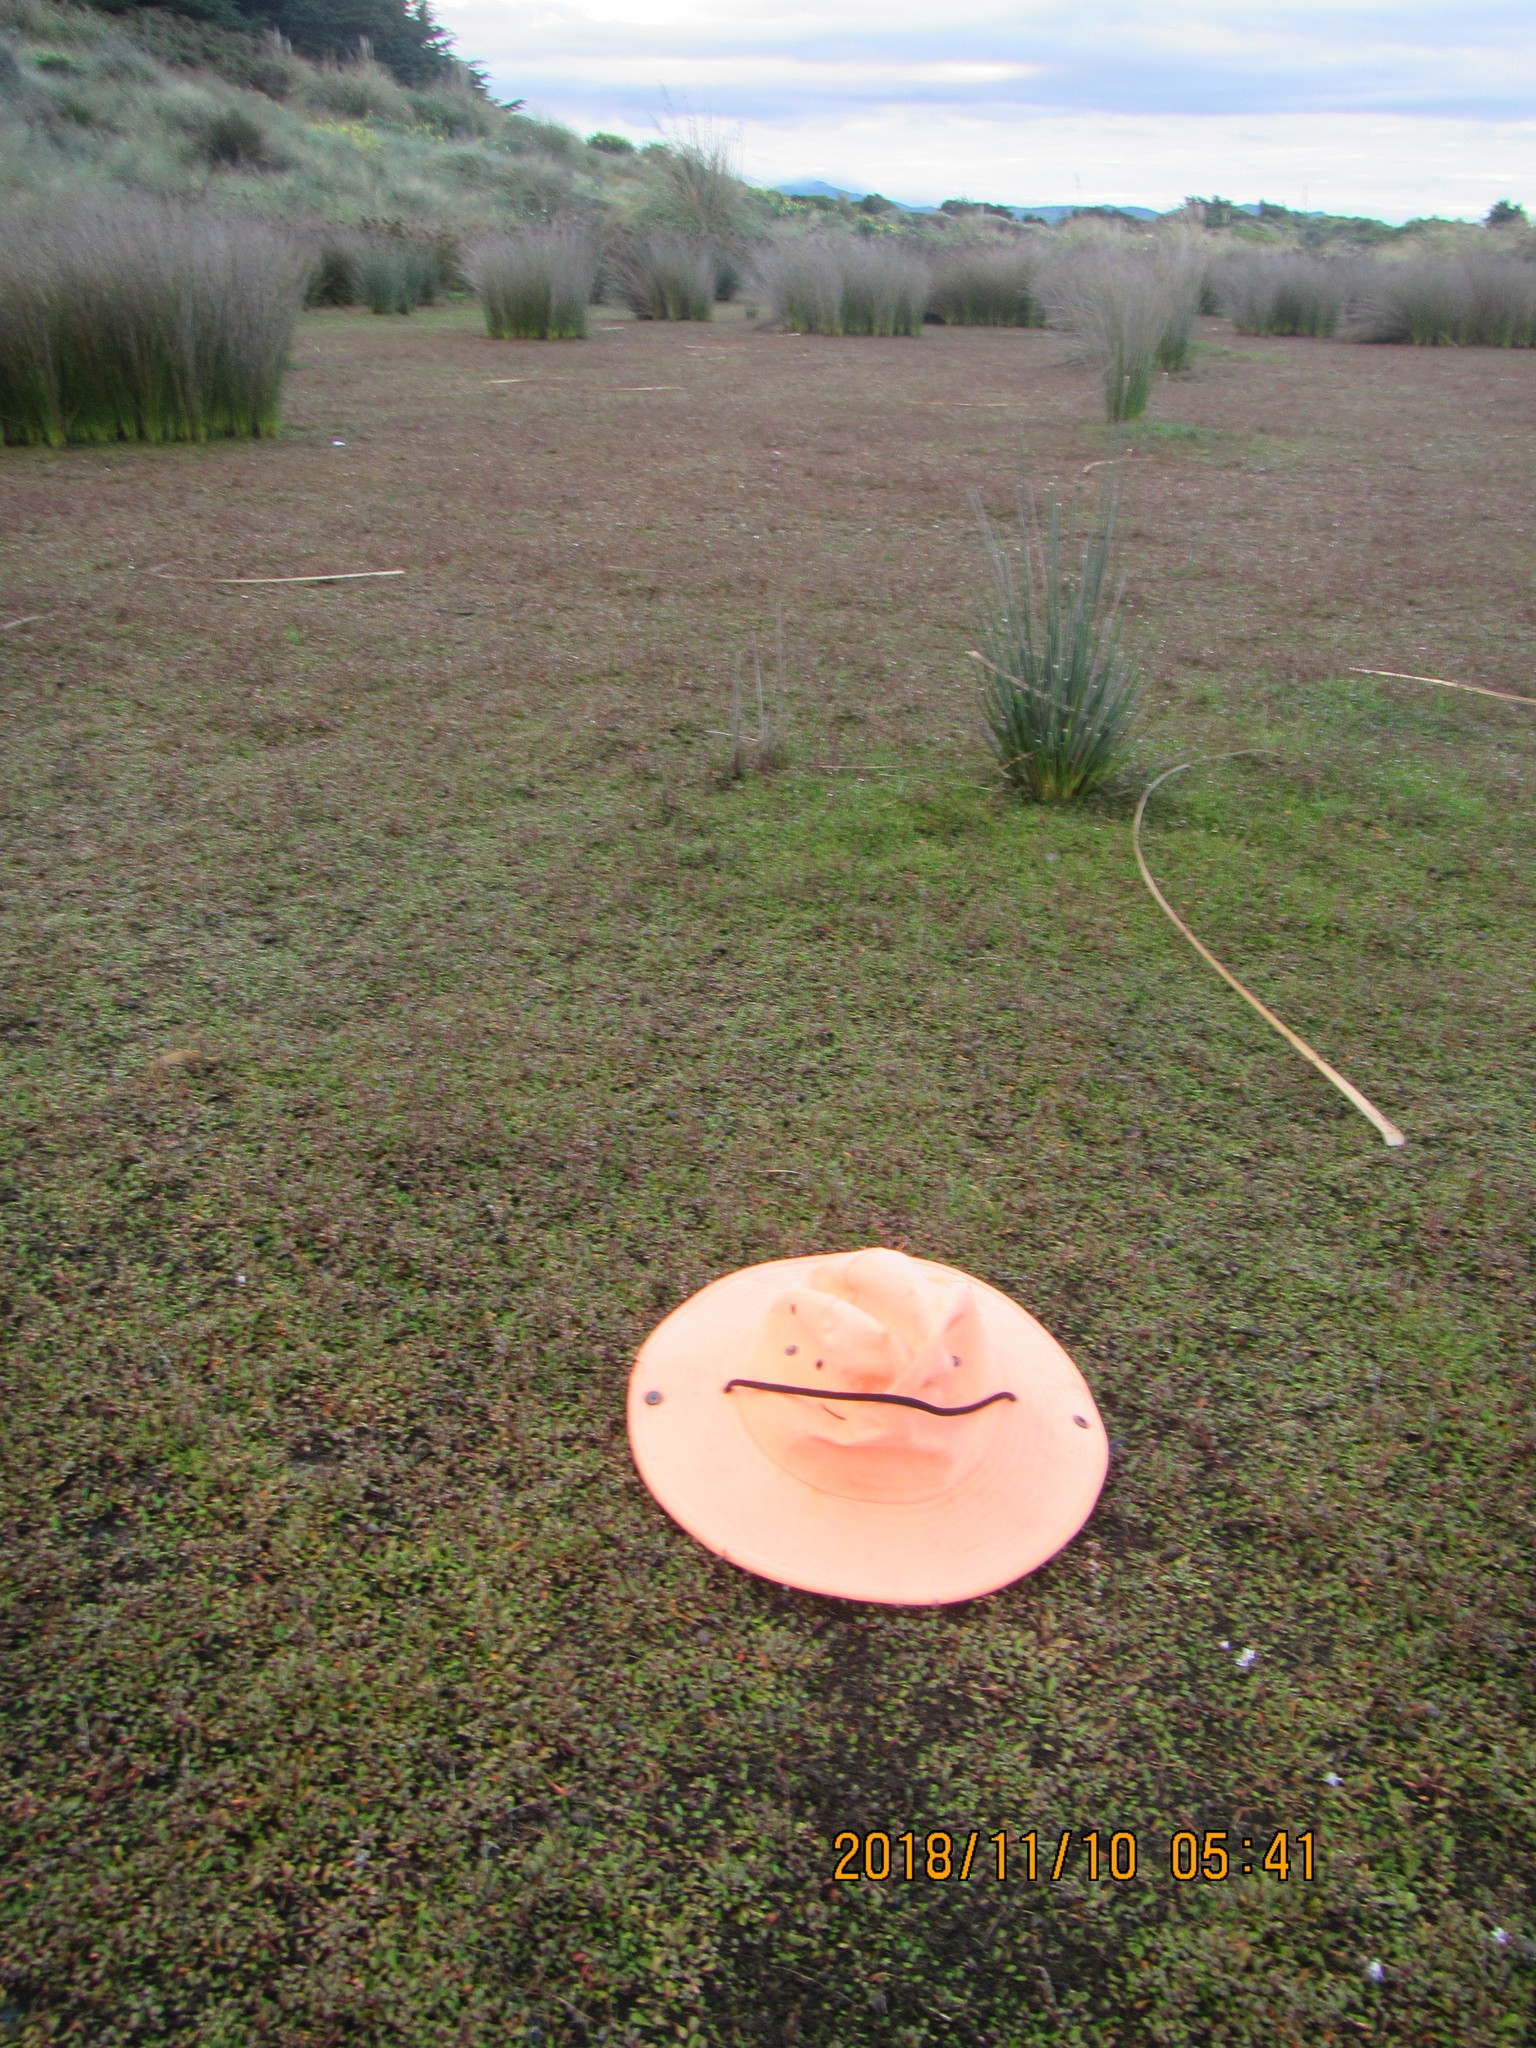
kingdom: Plantae
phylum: Tracheophyta
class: Magnoliopsida
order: Ericales
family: Primulaceae
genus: Samolus
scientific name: Samolus repens
